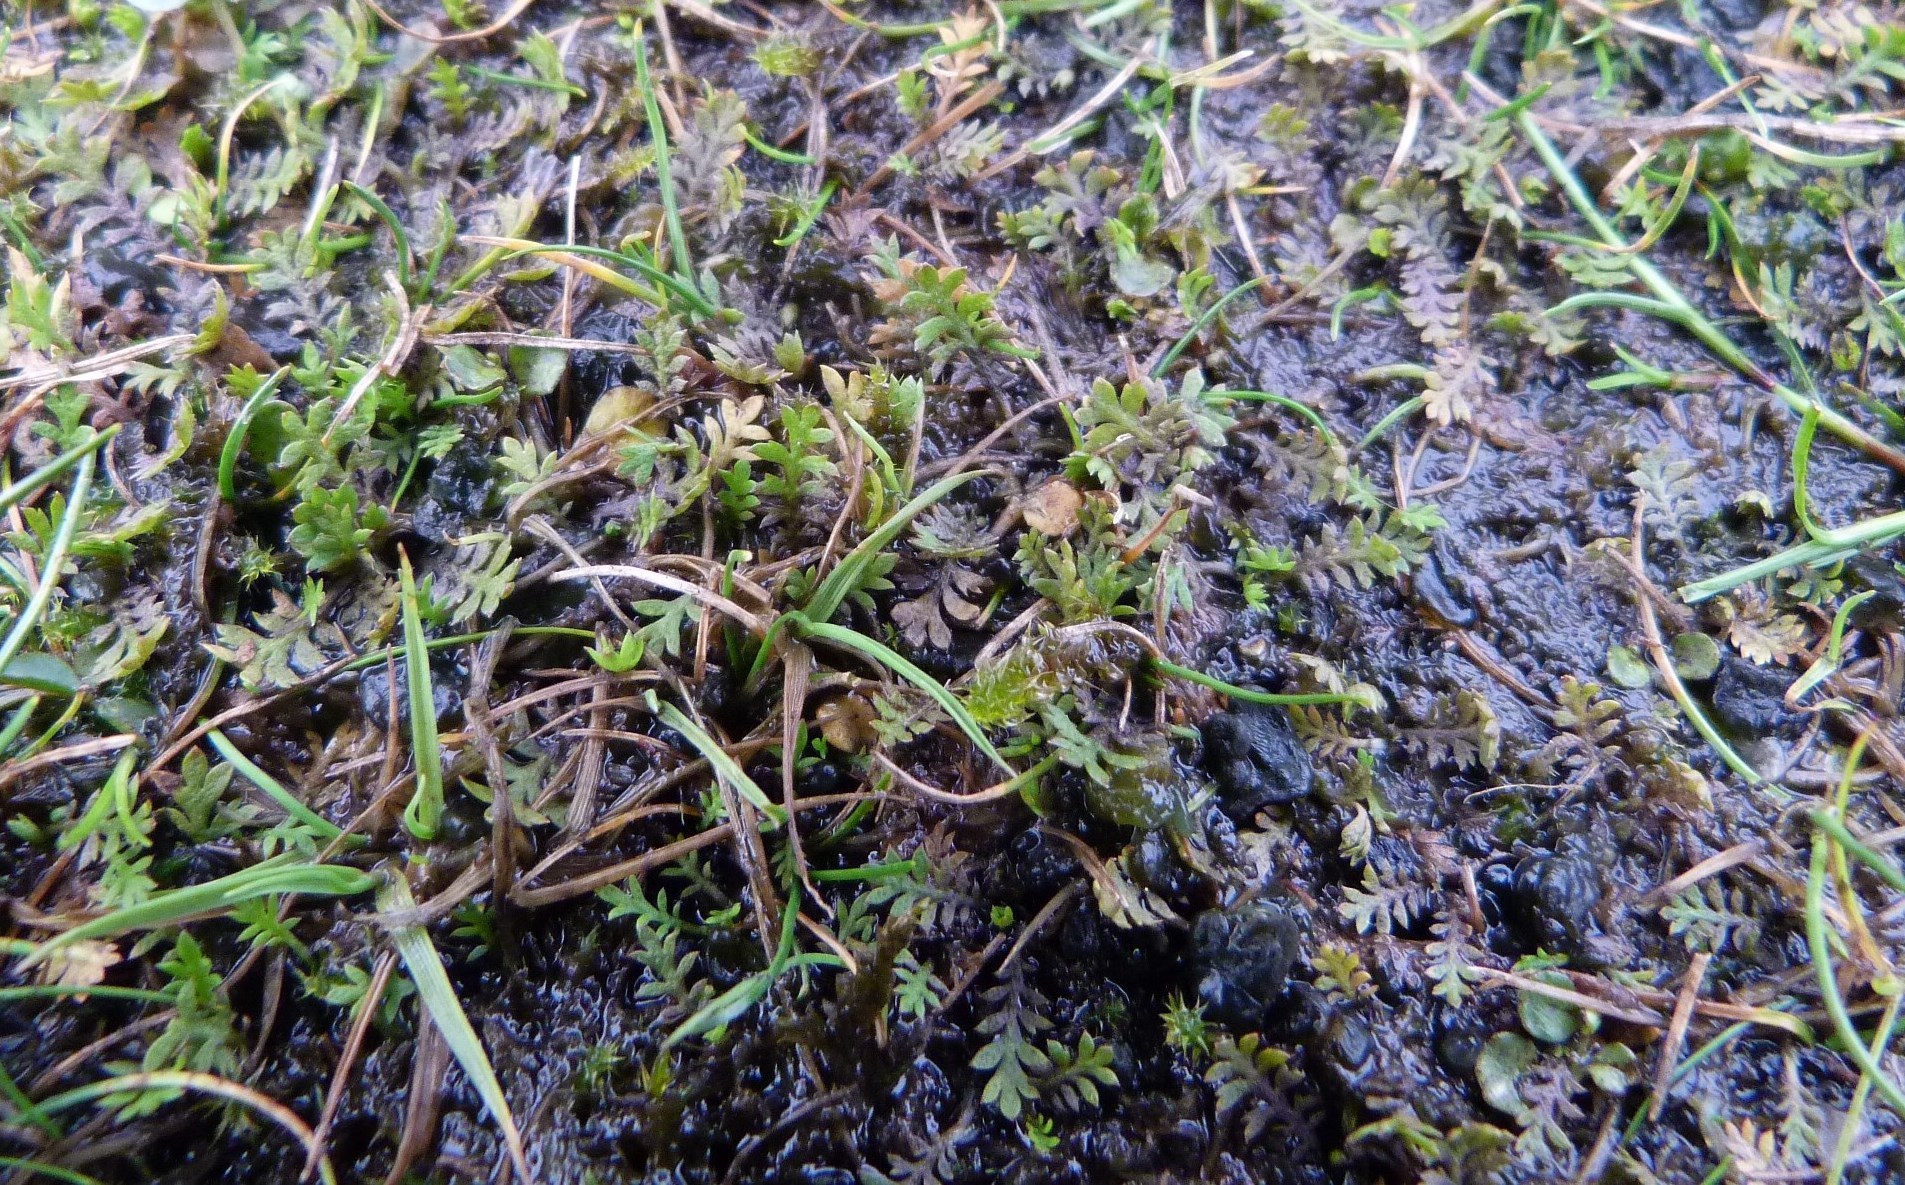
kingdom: Plantae
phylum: Tracheophyta
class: Magnoliopsida
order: Asterales
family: Asteraceae
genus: Leptinella
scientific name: Leptinella dispersa
